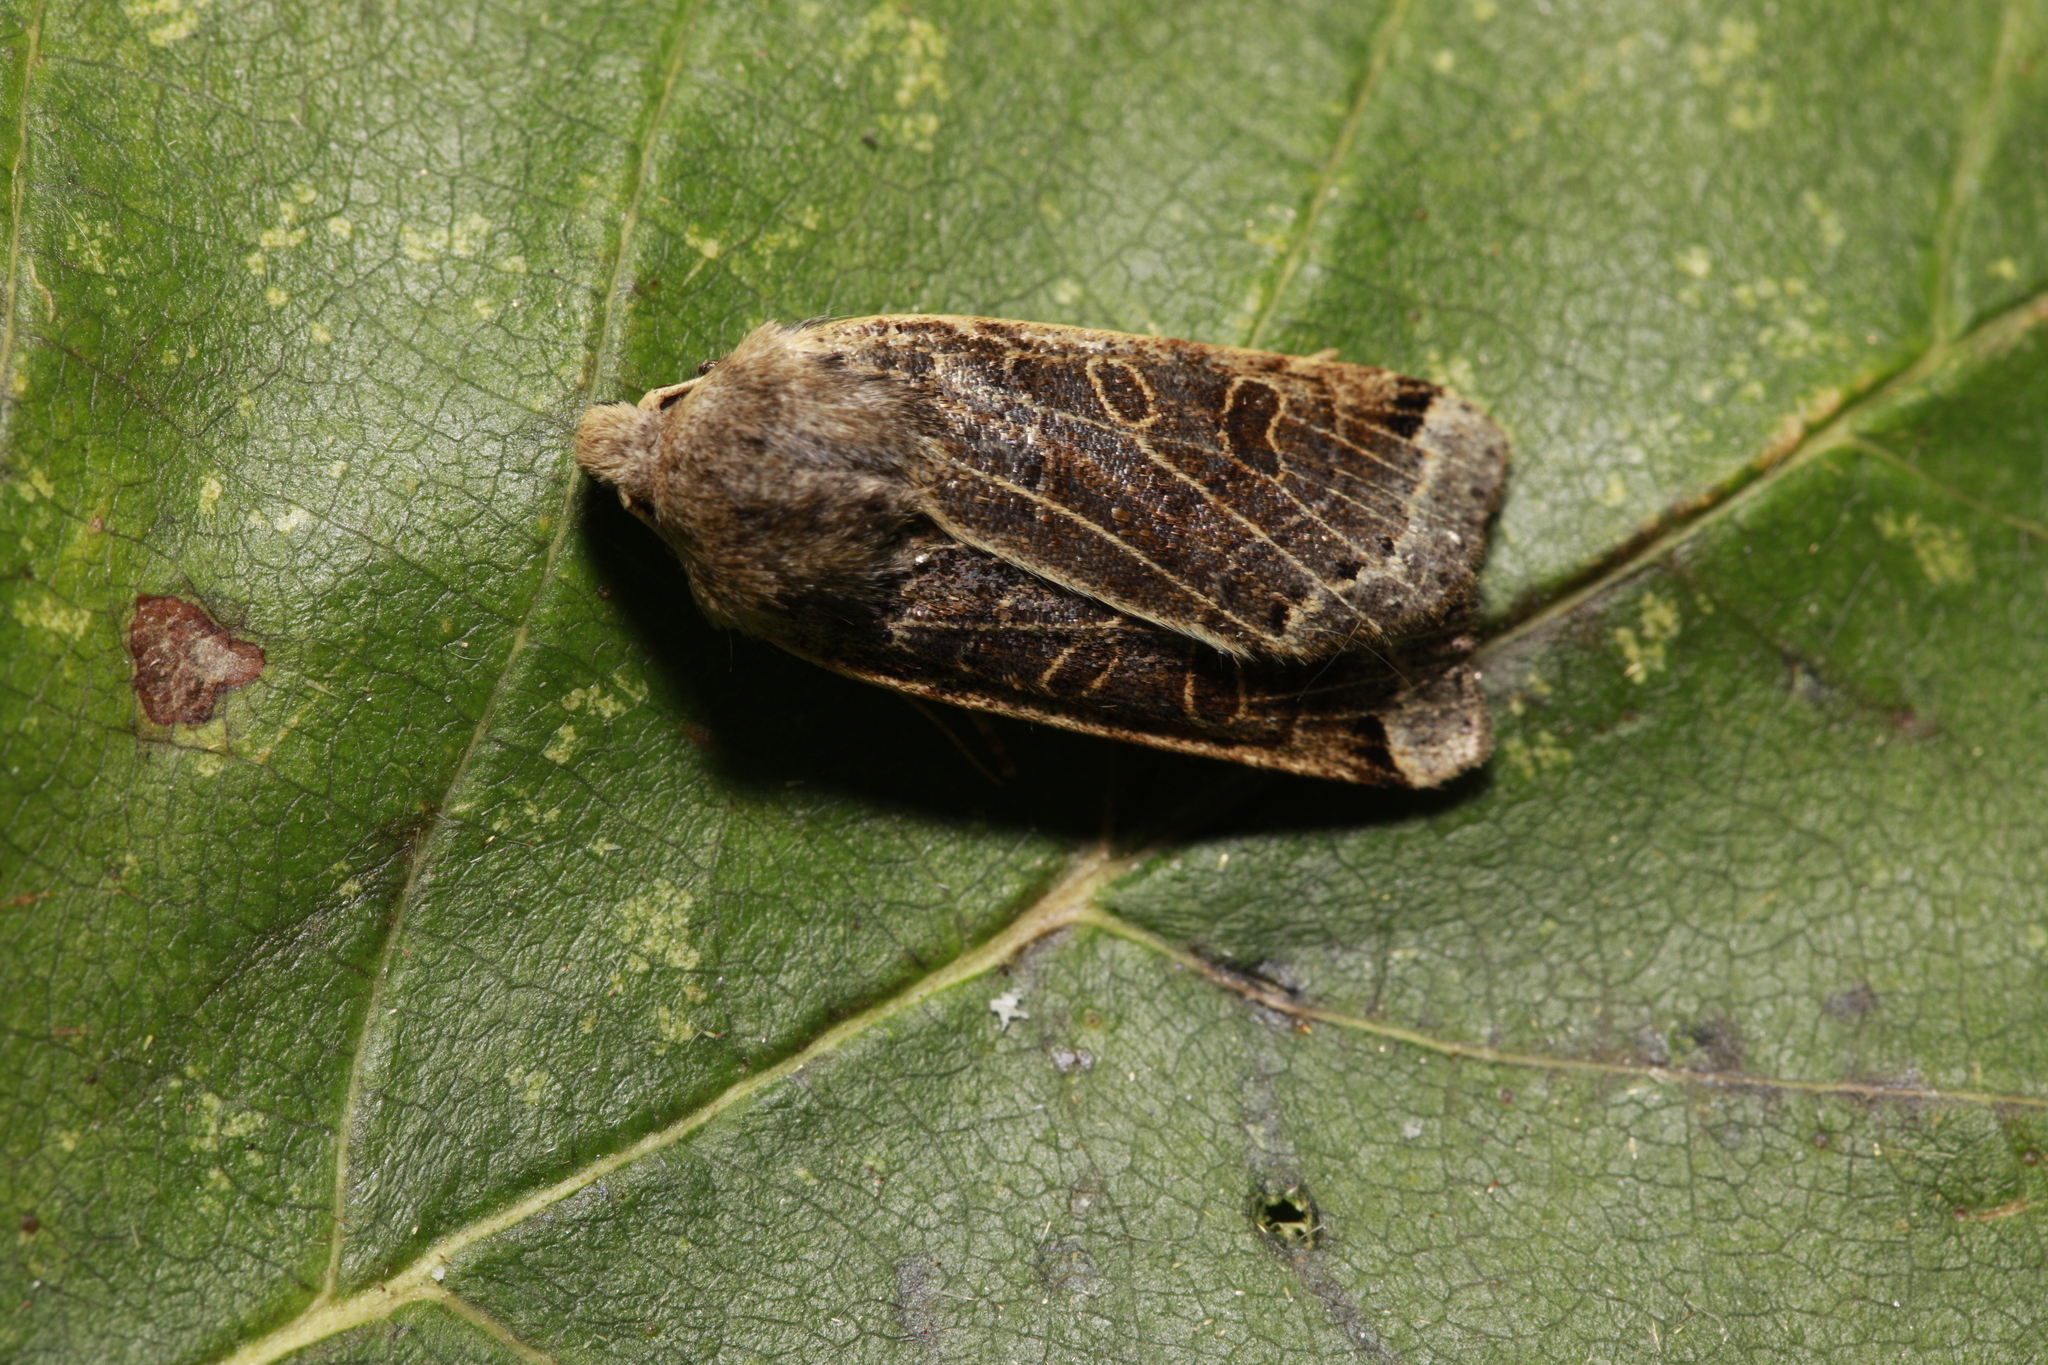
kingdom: Animalia
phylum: Arthropoda
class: Insecta
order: Lepidoptera
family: Noctuidae
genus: Agrochola
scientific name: Agrochola lunosa
